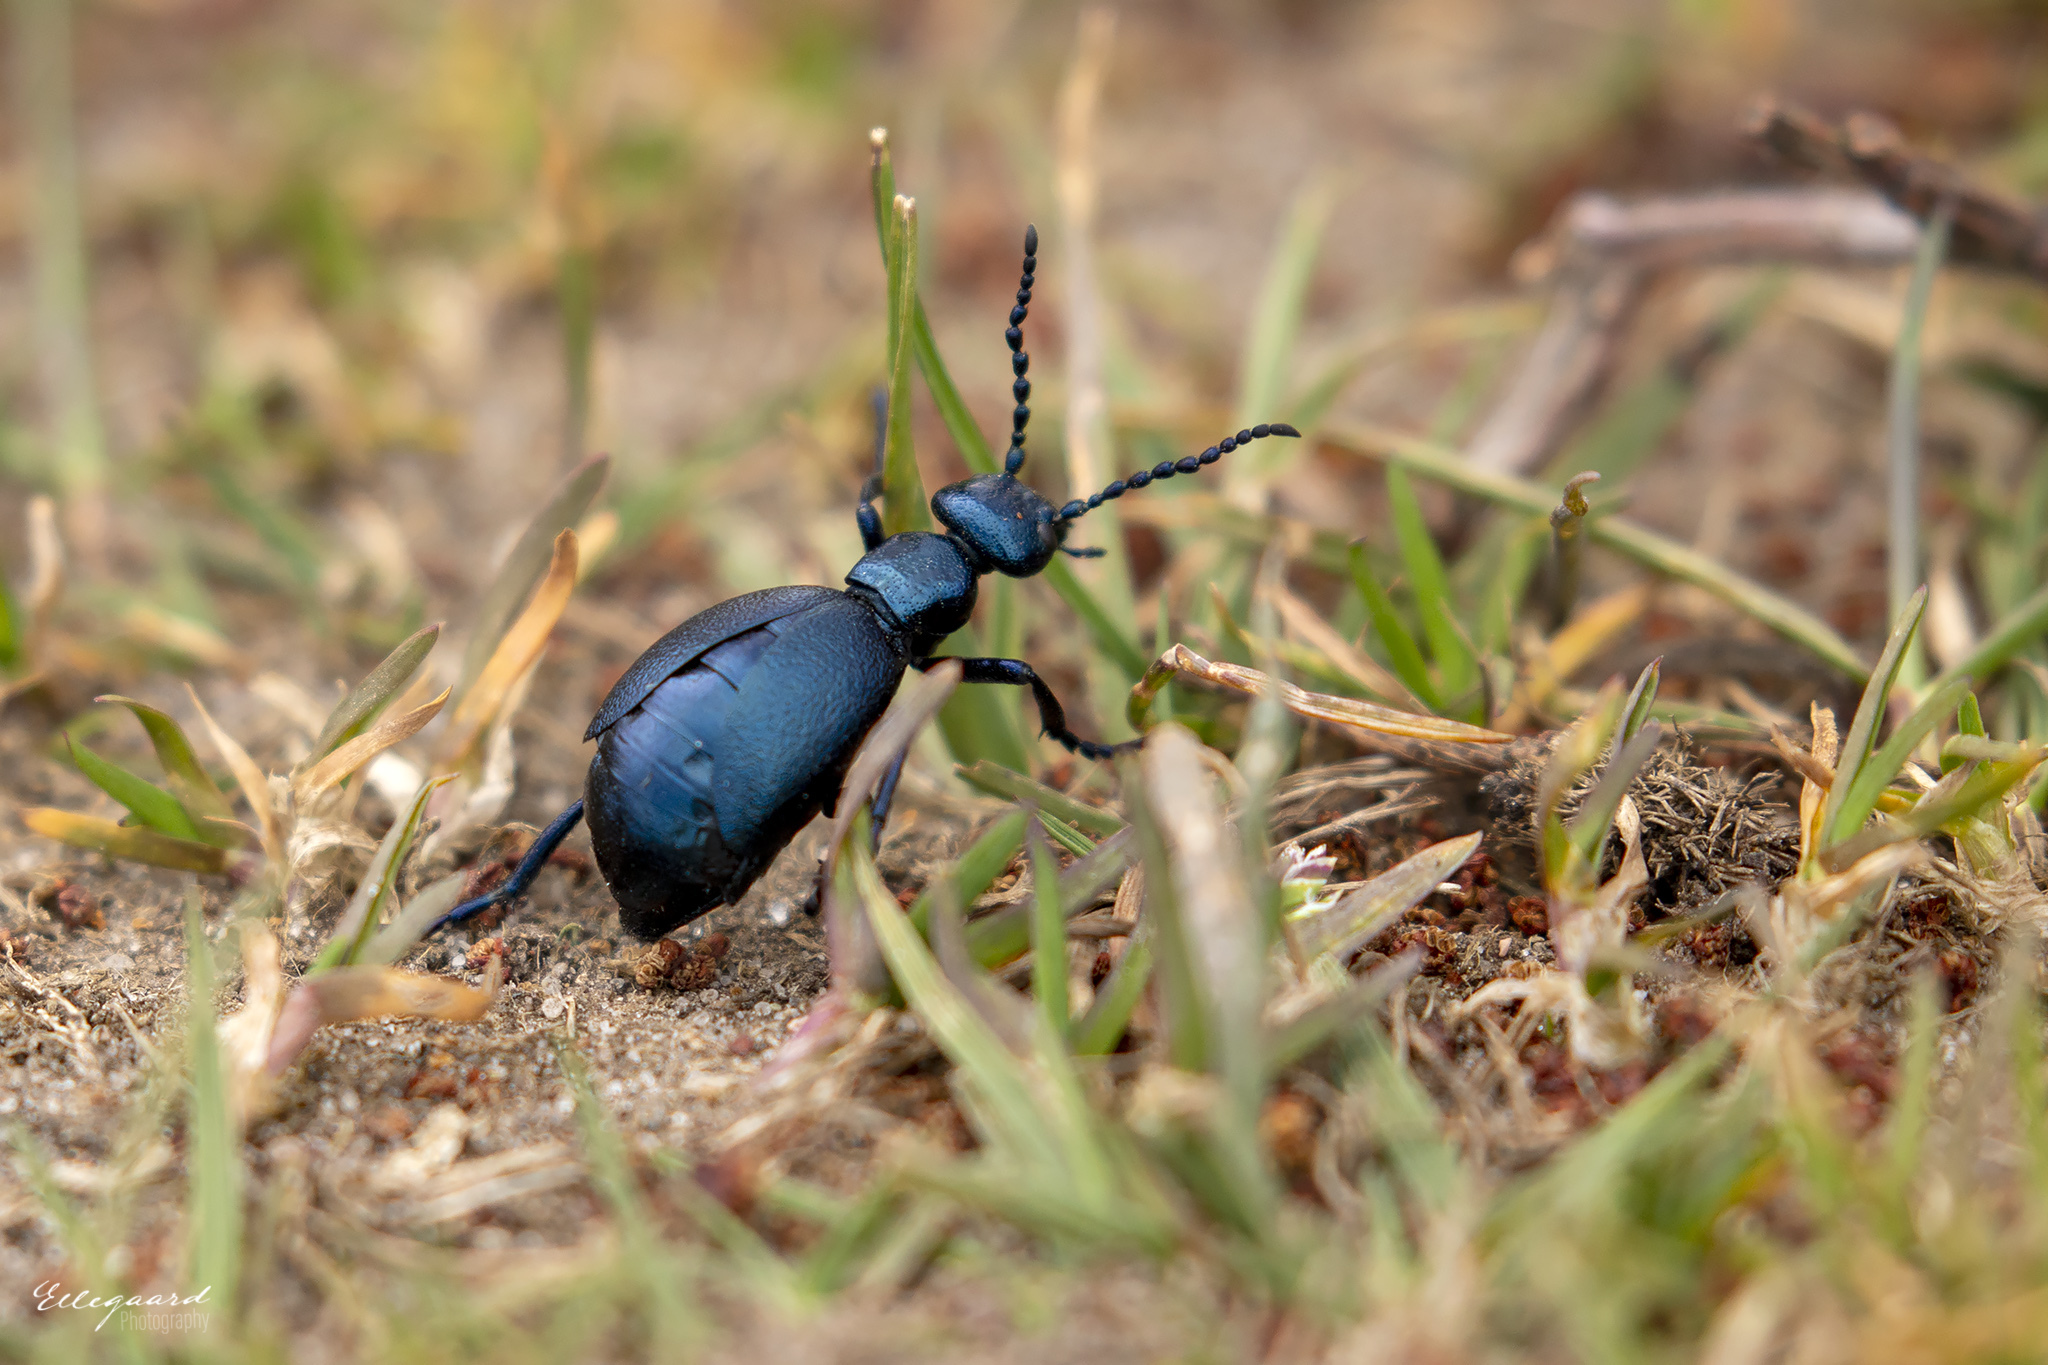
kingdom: Animalia
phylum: Arthropoda
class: Insecta
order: Coleoptera
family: Meloidae
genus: Meloe
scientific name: Meloe violaceus
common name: Violet oil-beetle
